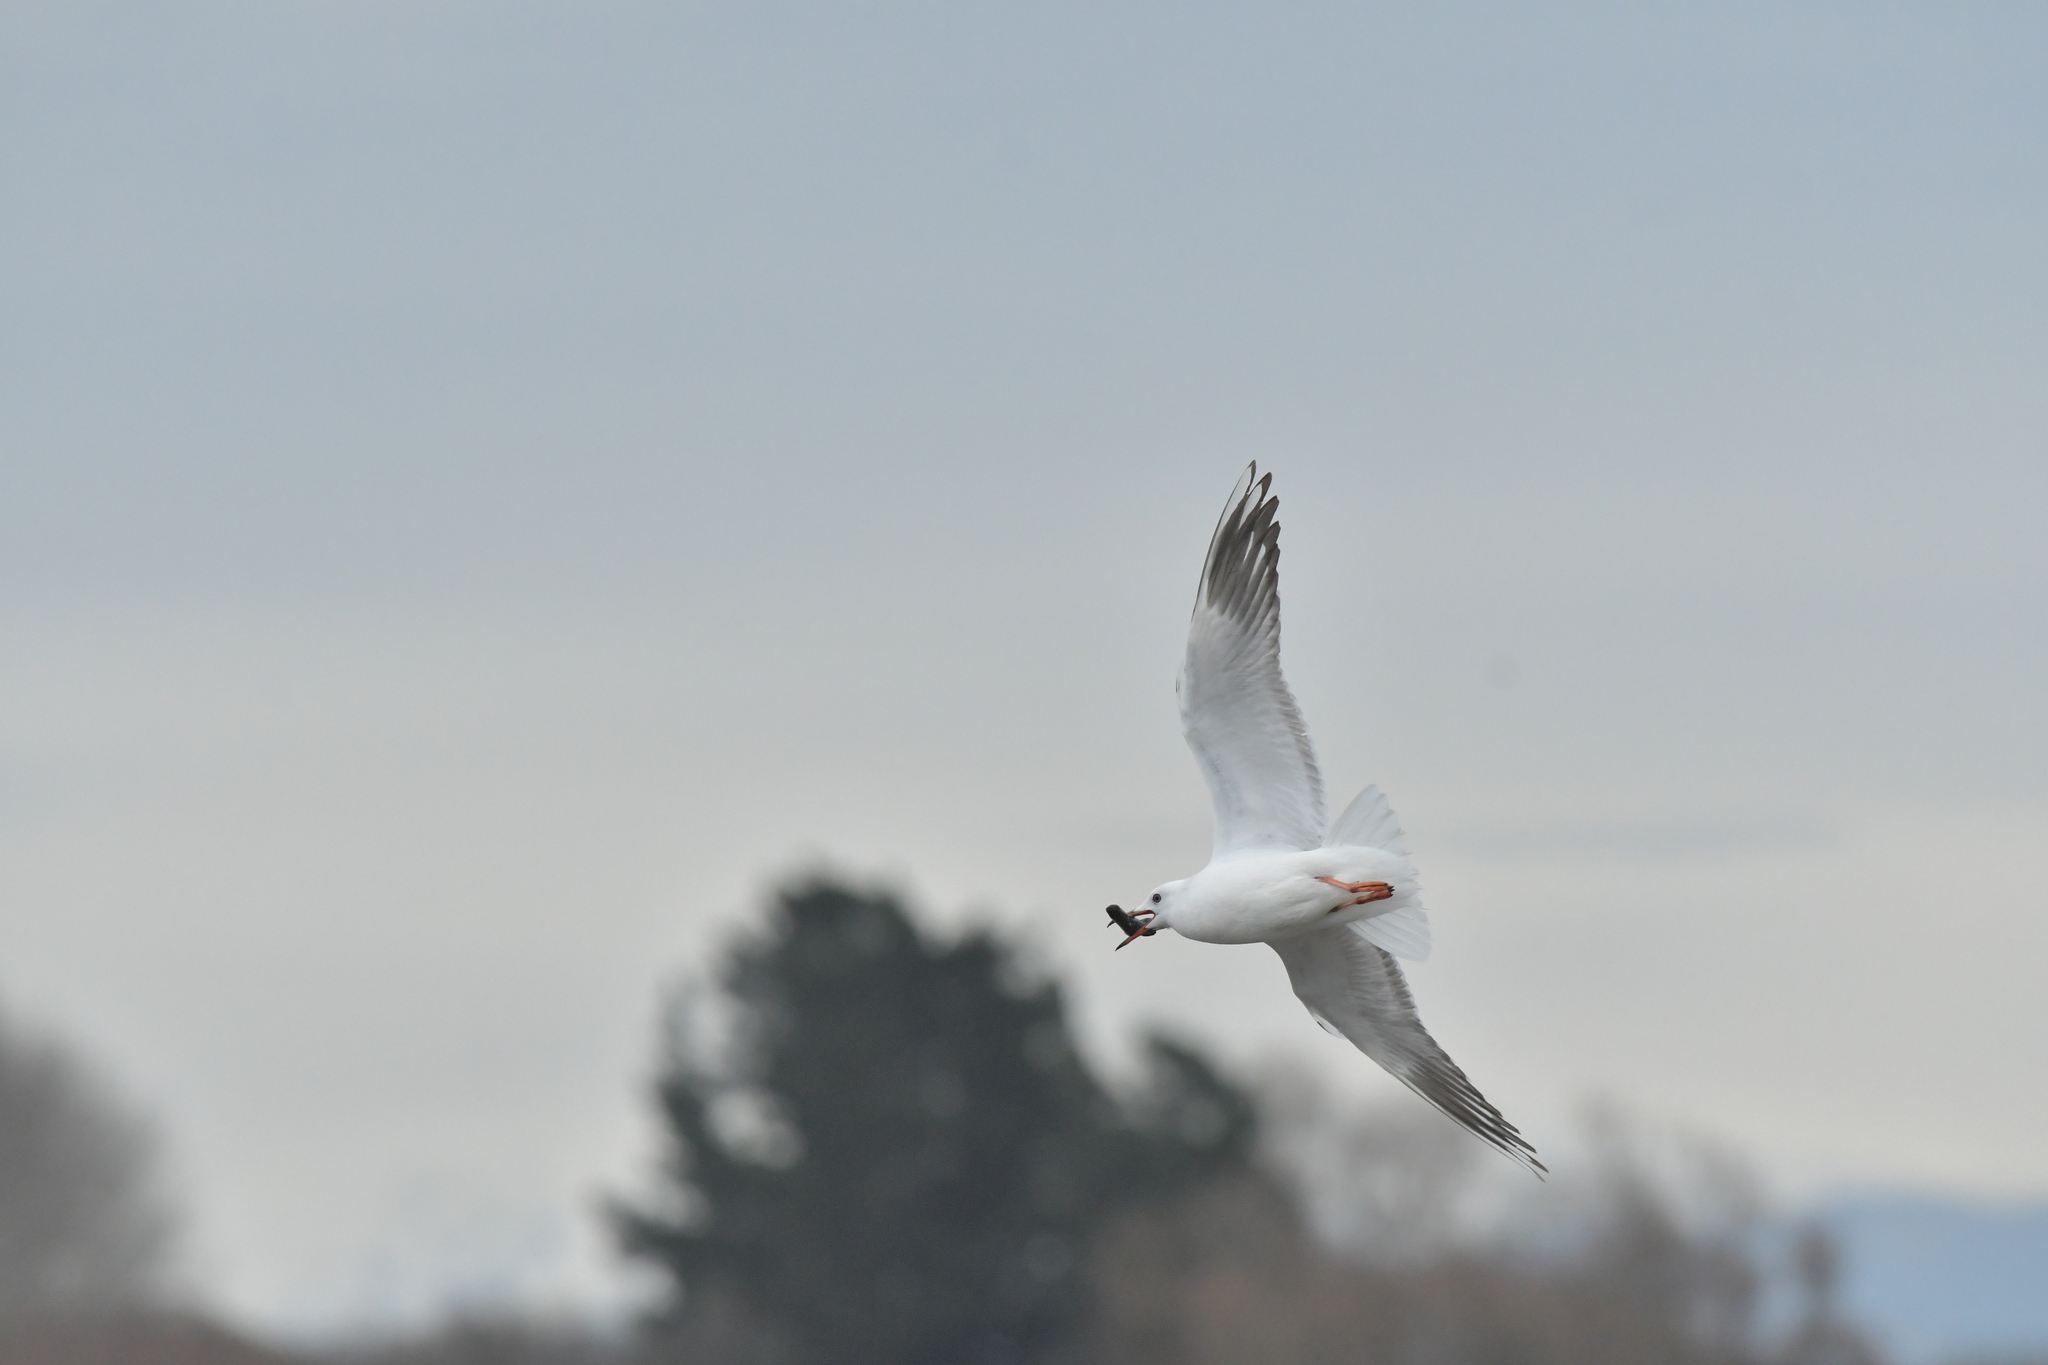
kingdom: Animalia
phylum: Chordata
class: Aves
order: Charadriiformes
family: Laridae
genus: Chroicocephalus
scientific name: Chroicocephalus novaehollandiae
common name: Silver gull
